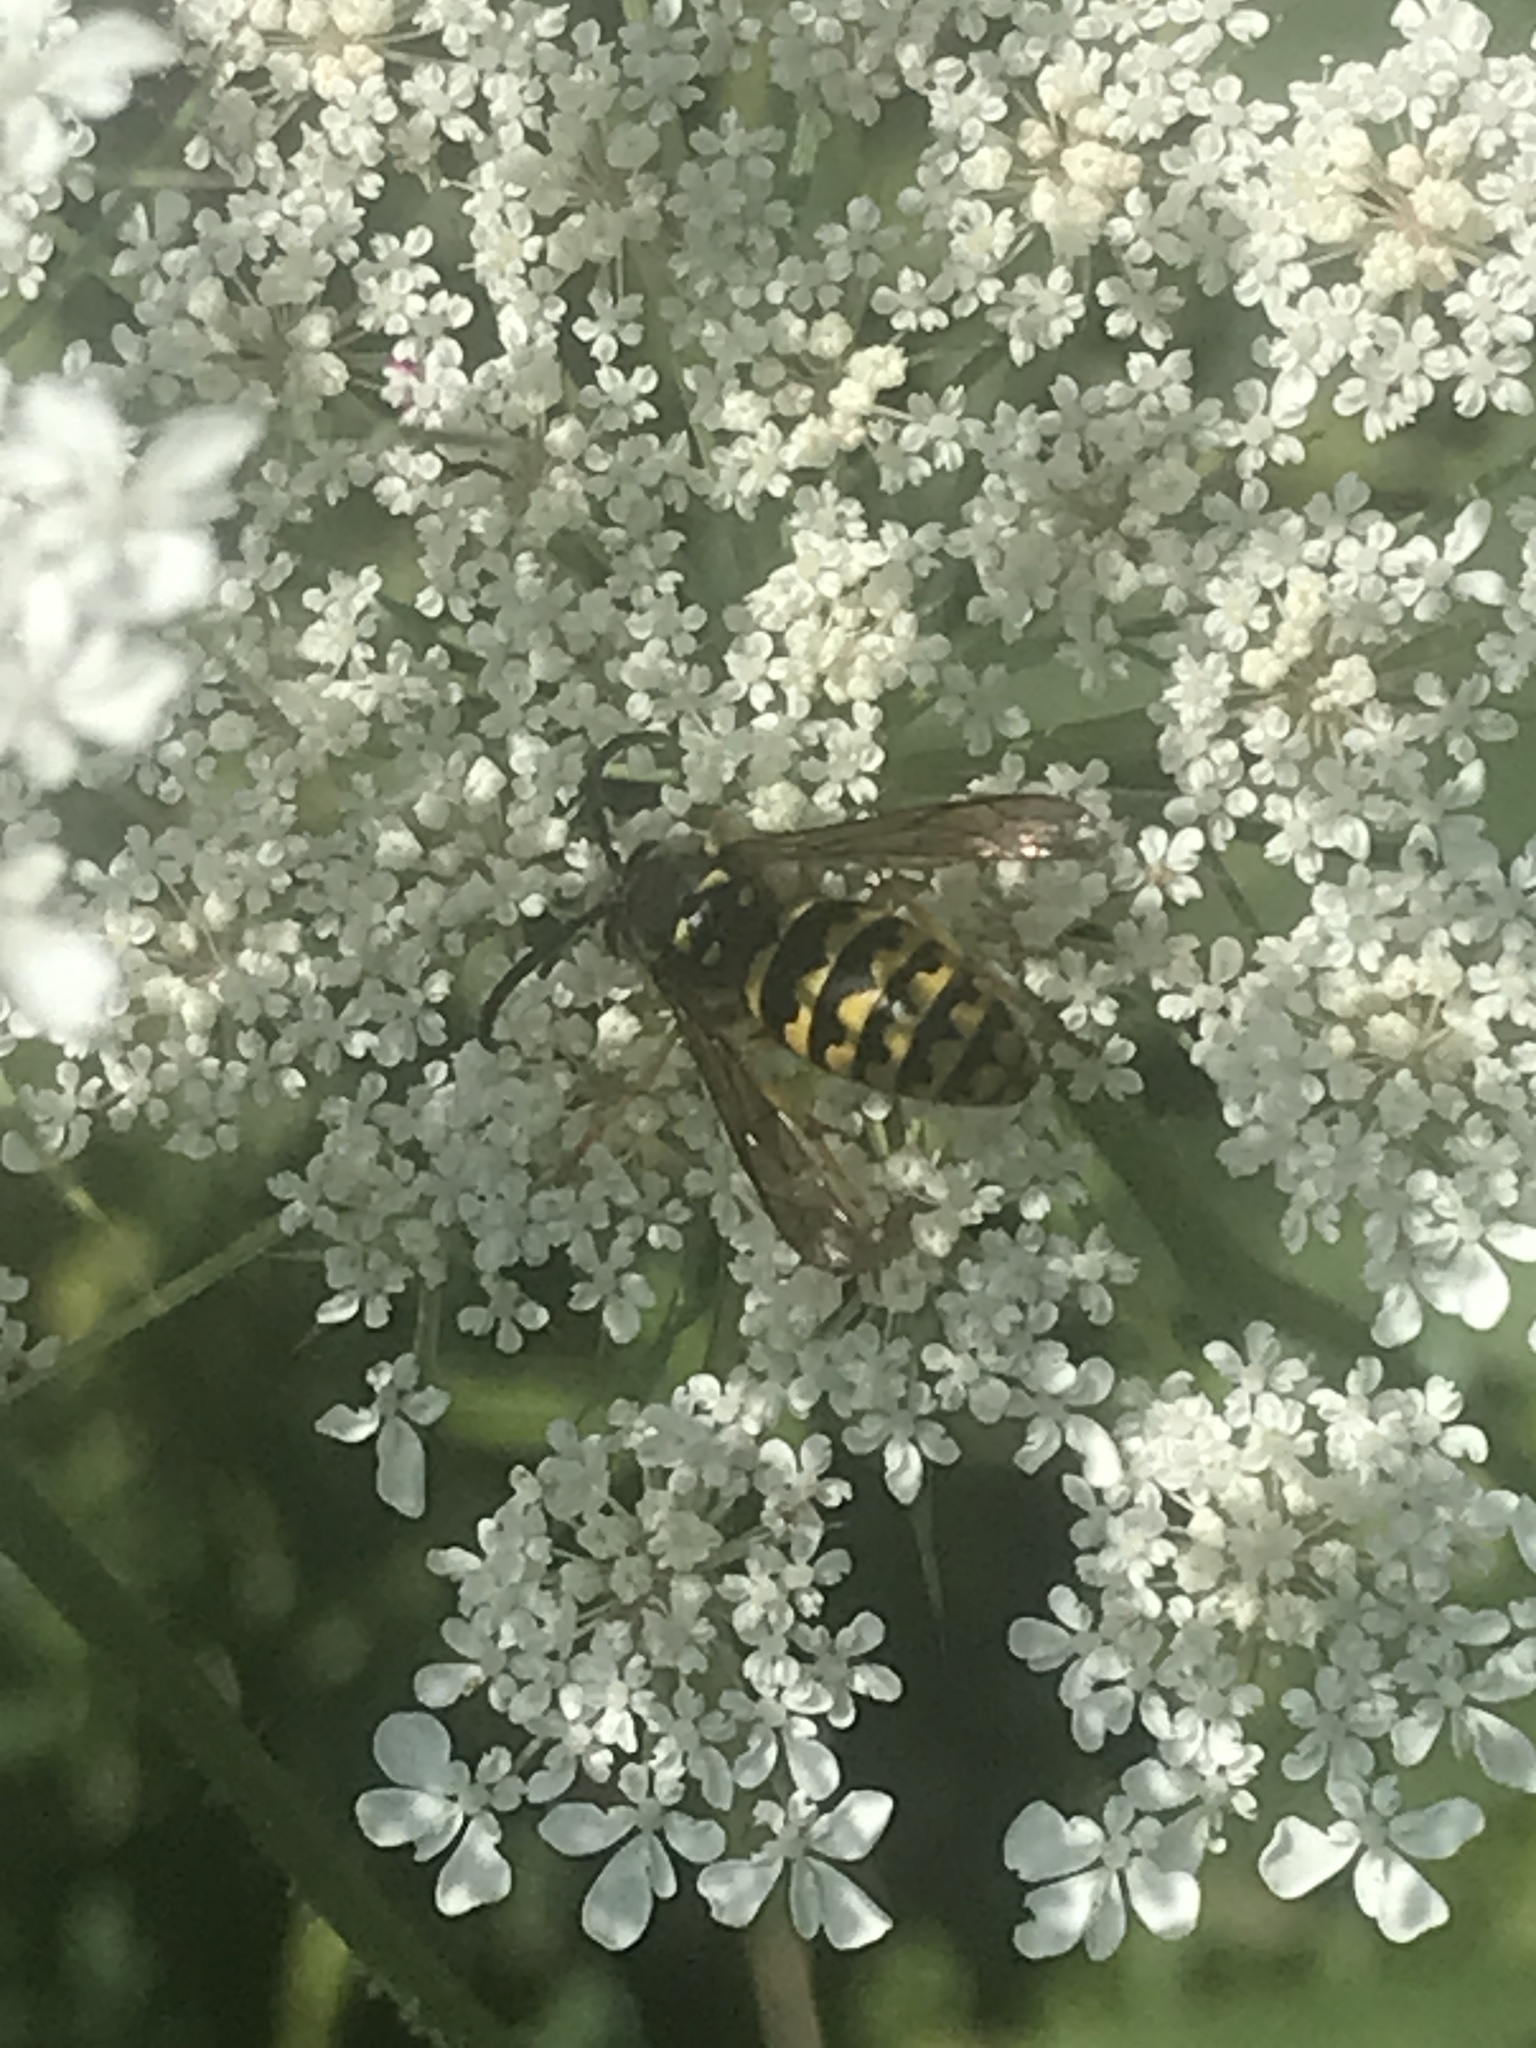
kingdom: Animalia
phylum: Arthropoda
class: Insecta
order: Hymenoptera
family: Vespidae
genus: Dolichovespula
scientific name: Dolichovespula arenaria
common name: Aerial yellowjacket
